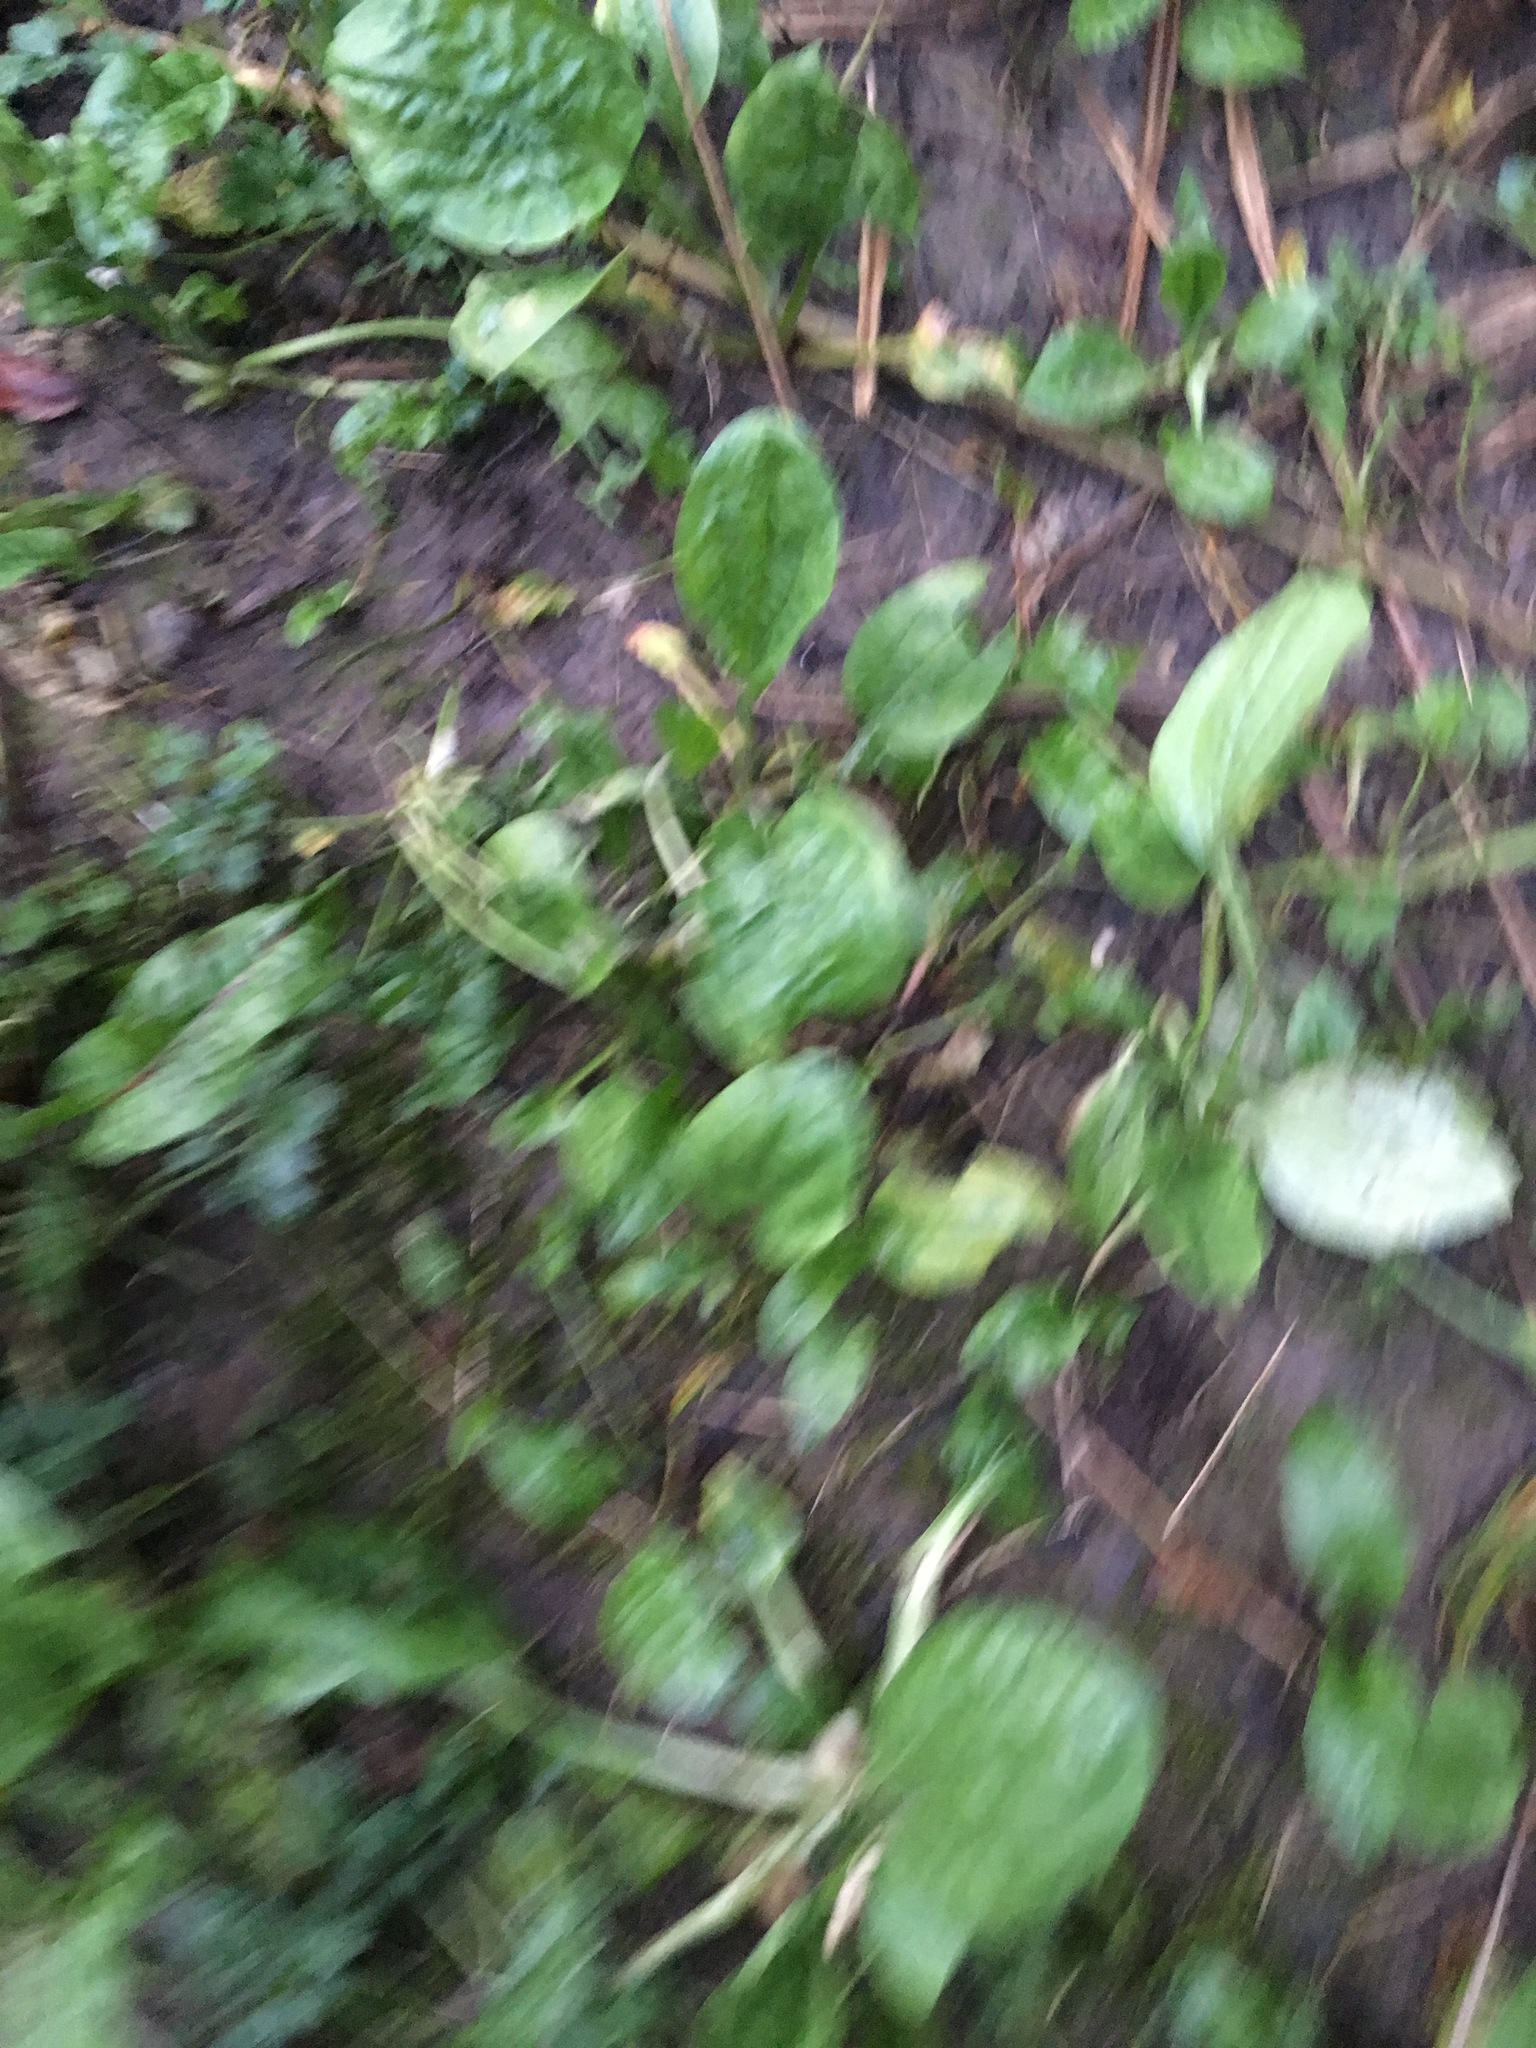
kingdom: Plantae
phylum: Tracheophyta
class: Magnoliopsida
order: Lamiales
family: Plantaginaceae
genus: Plantago
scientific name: Plantago major
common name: Common plantain
